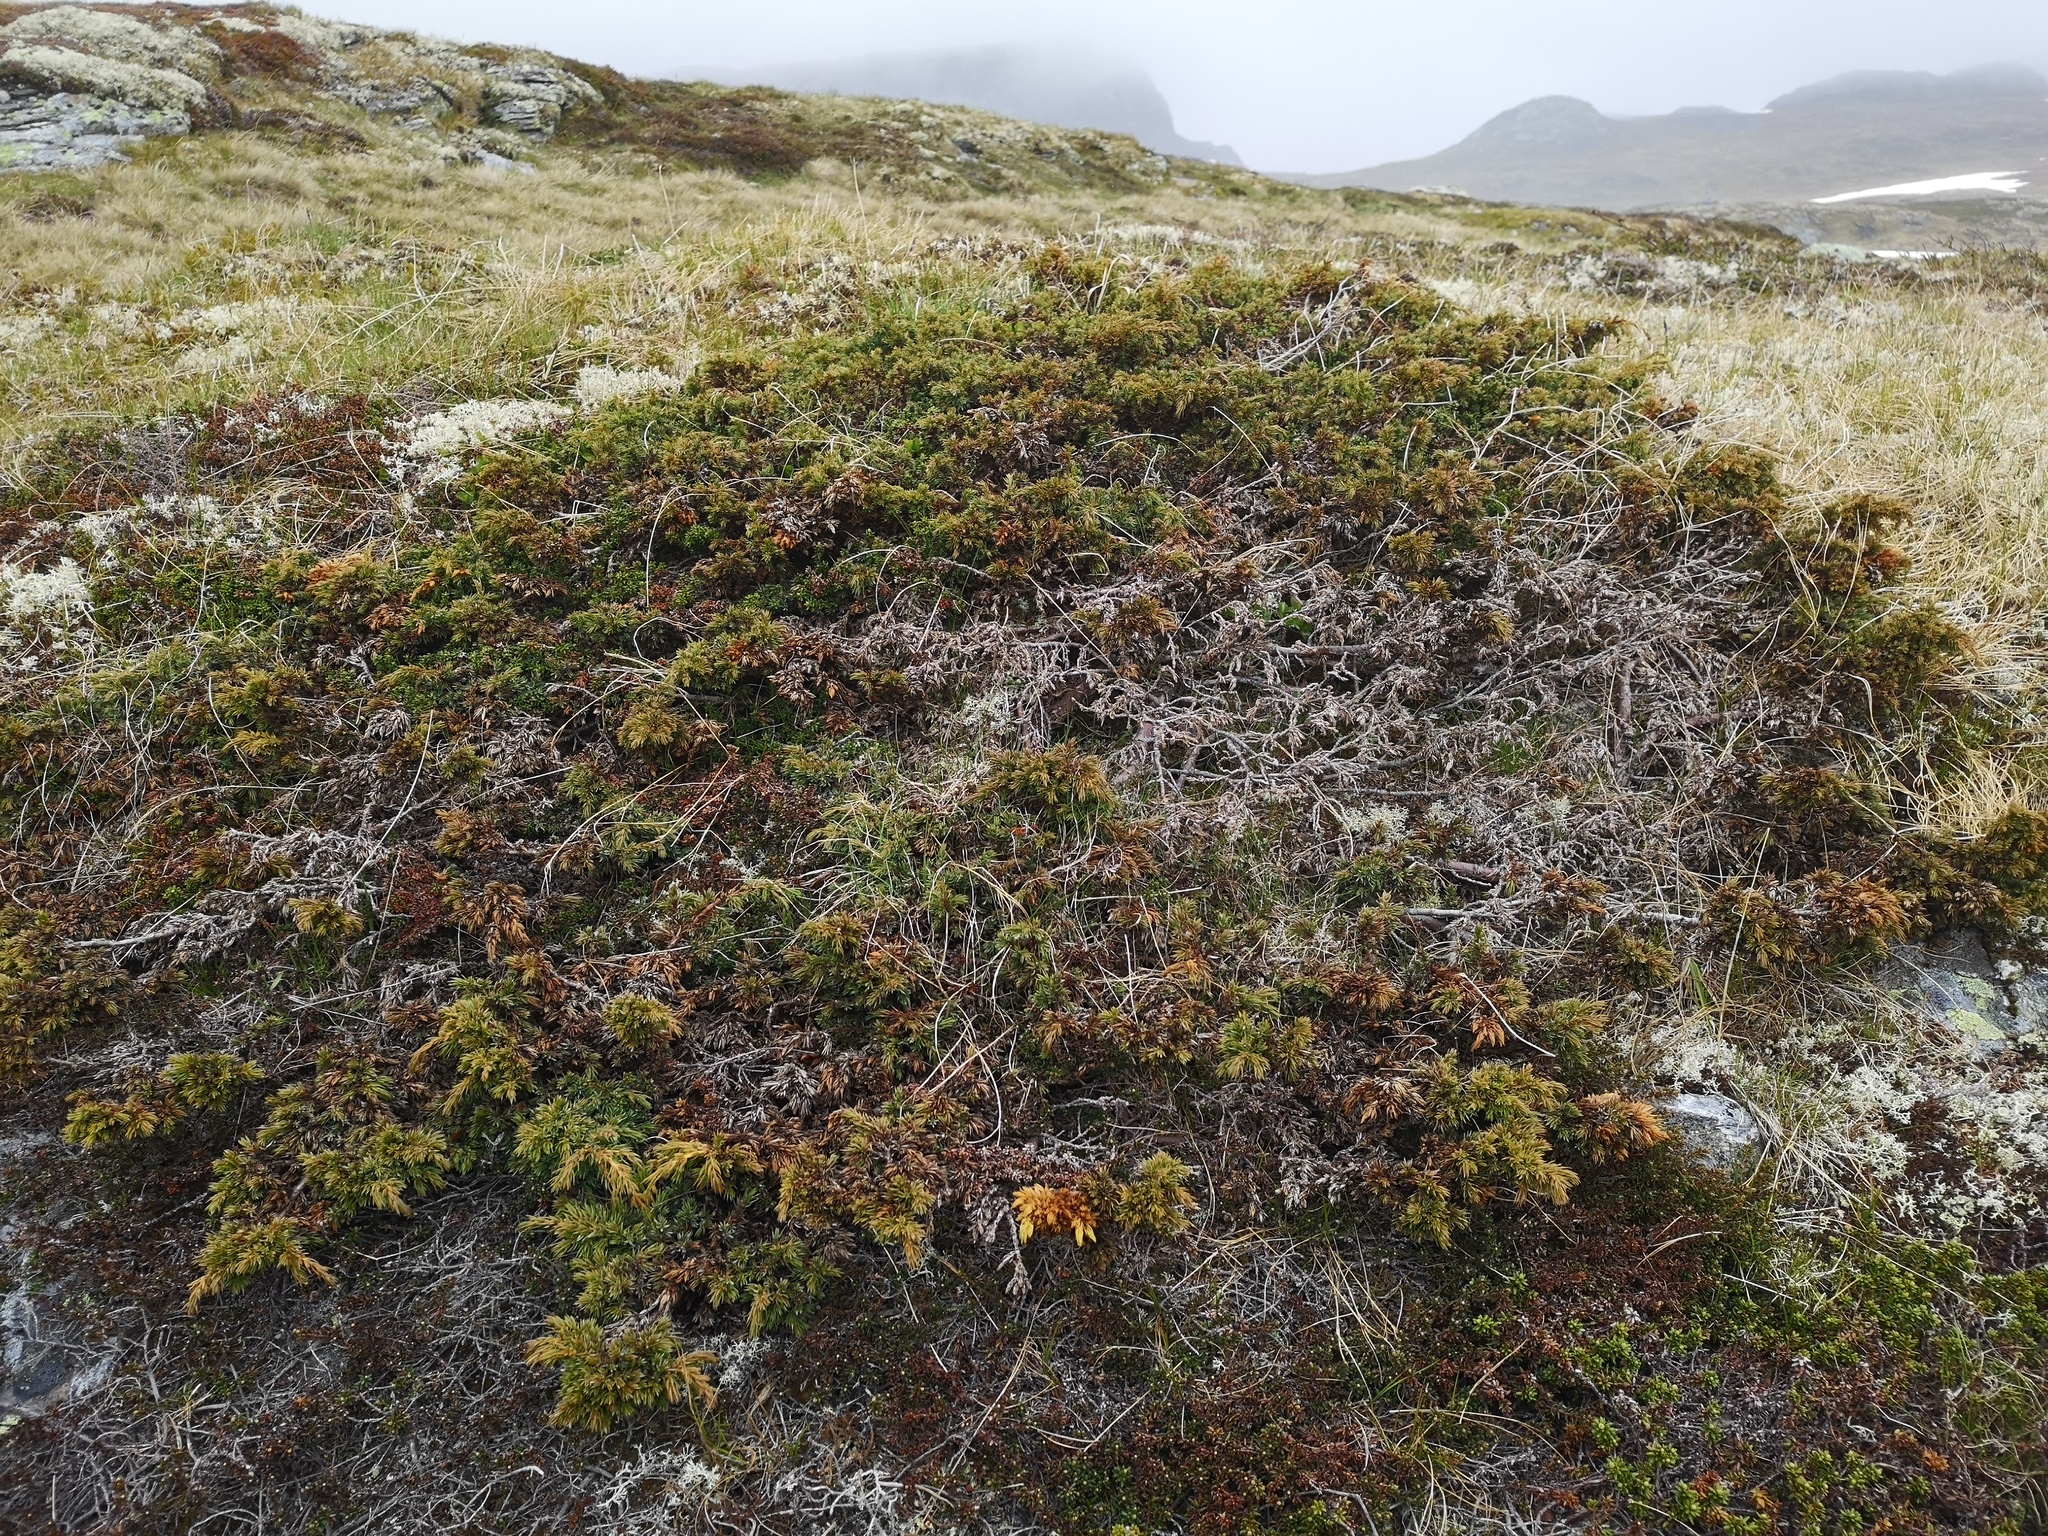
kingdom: Plantae
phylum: Tracheophyta
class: Pinopsida
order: Pinales
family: Cupressaceae
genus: Juniperus
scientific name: Juniperus communis
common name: Common juniper
